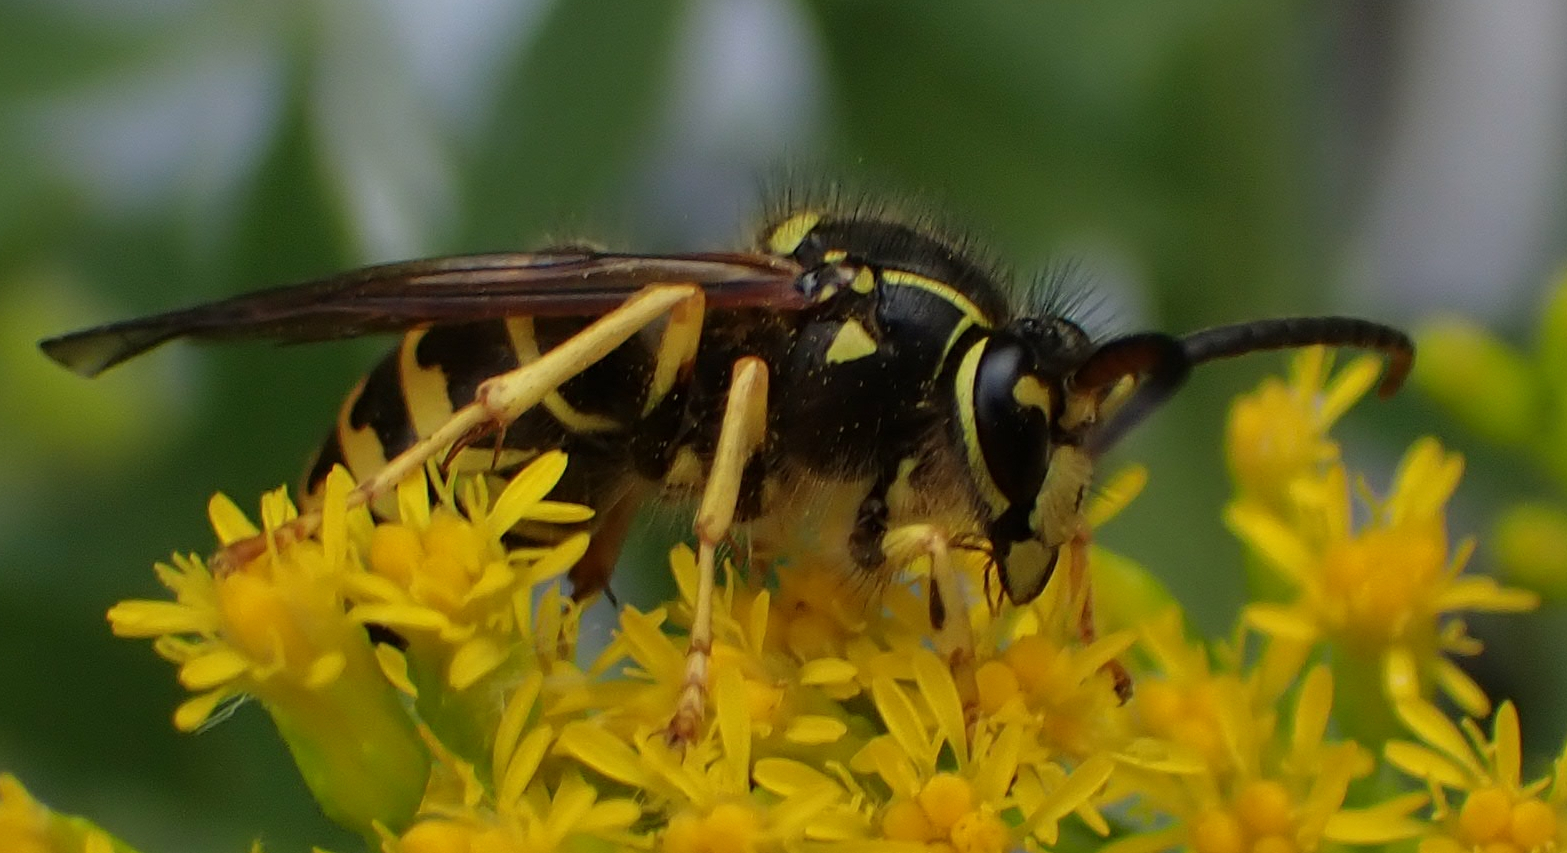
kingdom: Animalia
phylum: Arthropoda
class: Insecta
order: Hymenoptera
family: Vespidae
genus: Dolichovespula
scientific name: Dolichovespula arenaria
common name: Aerial yellowjacket
